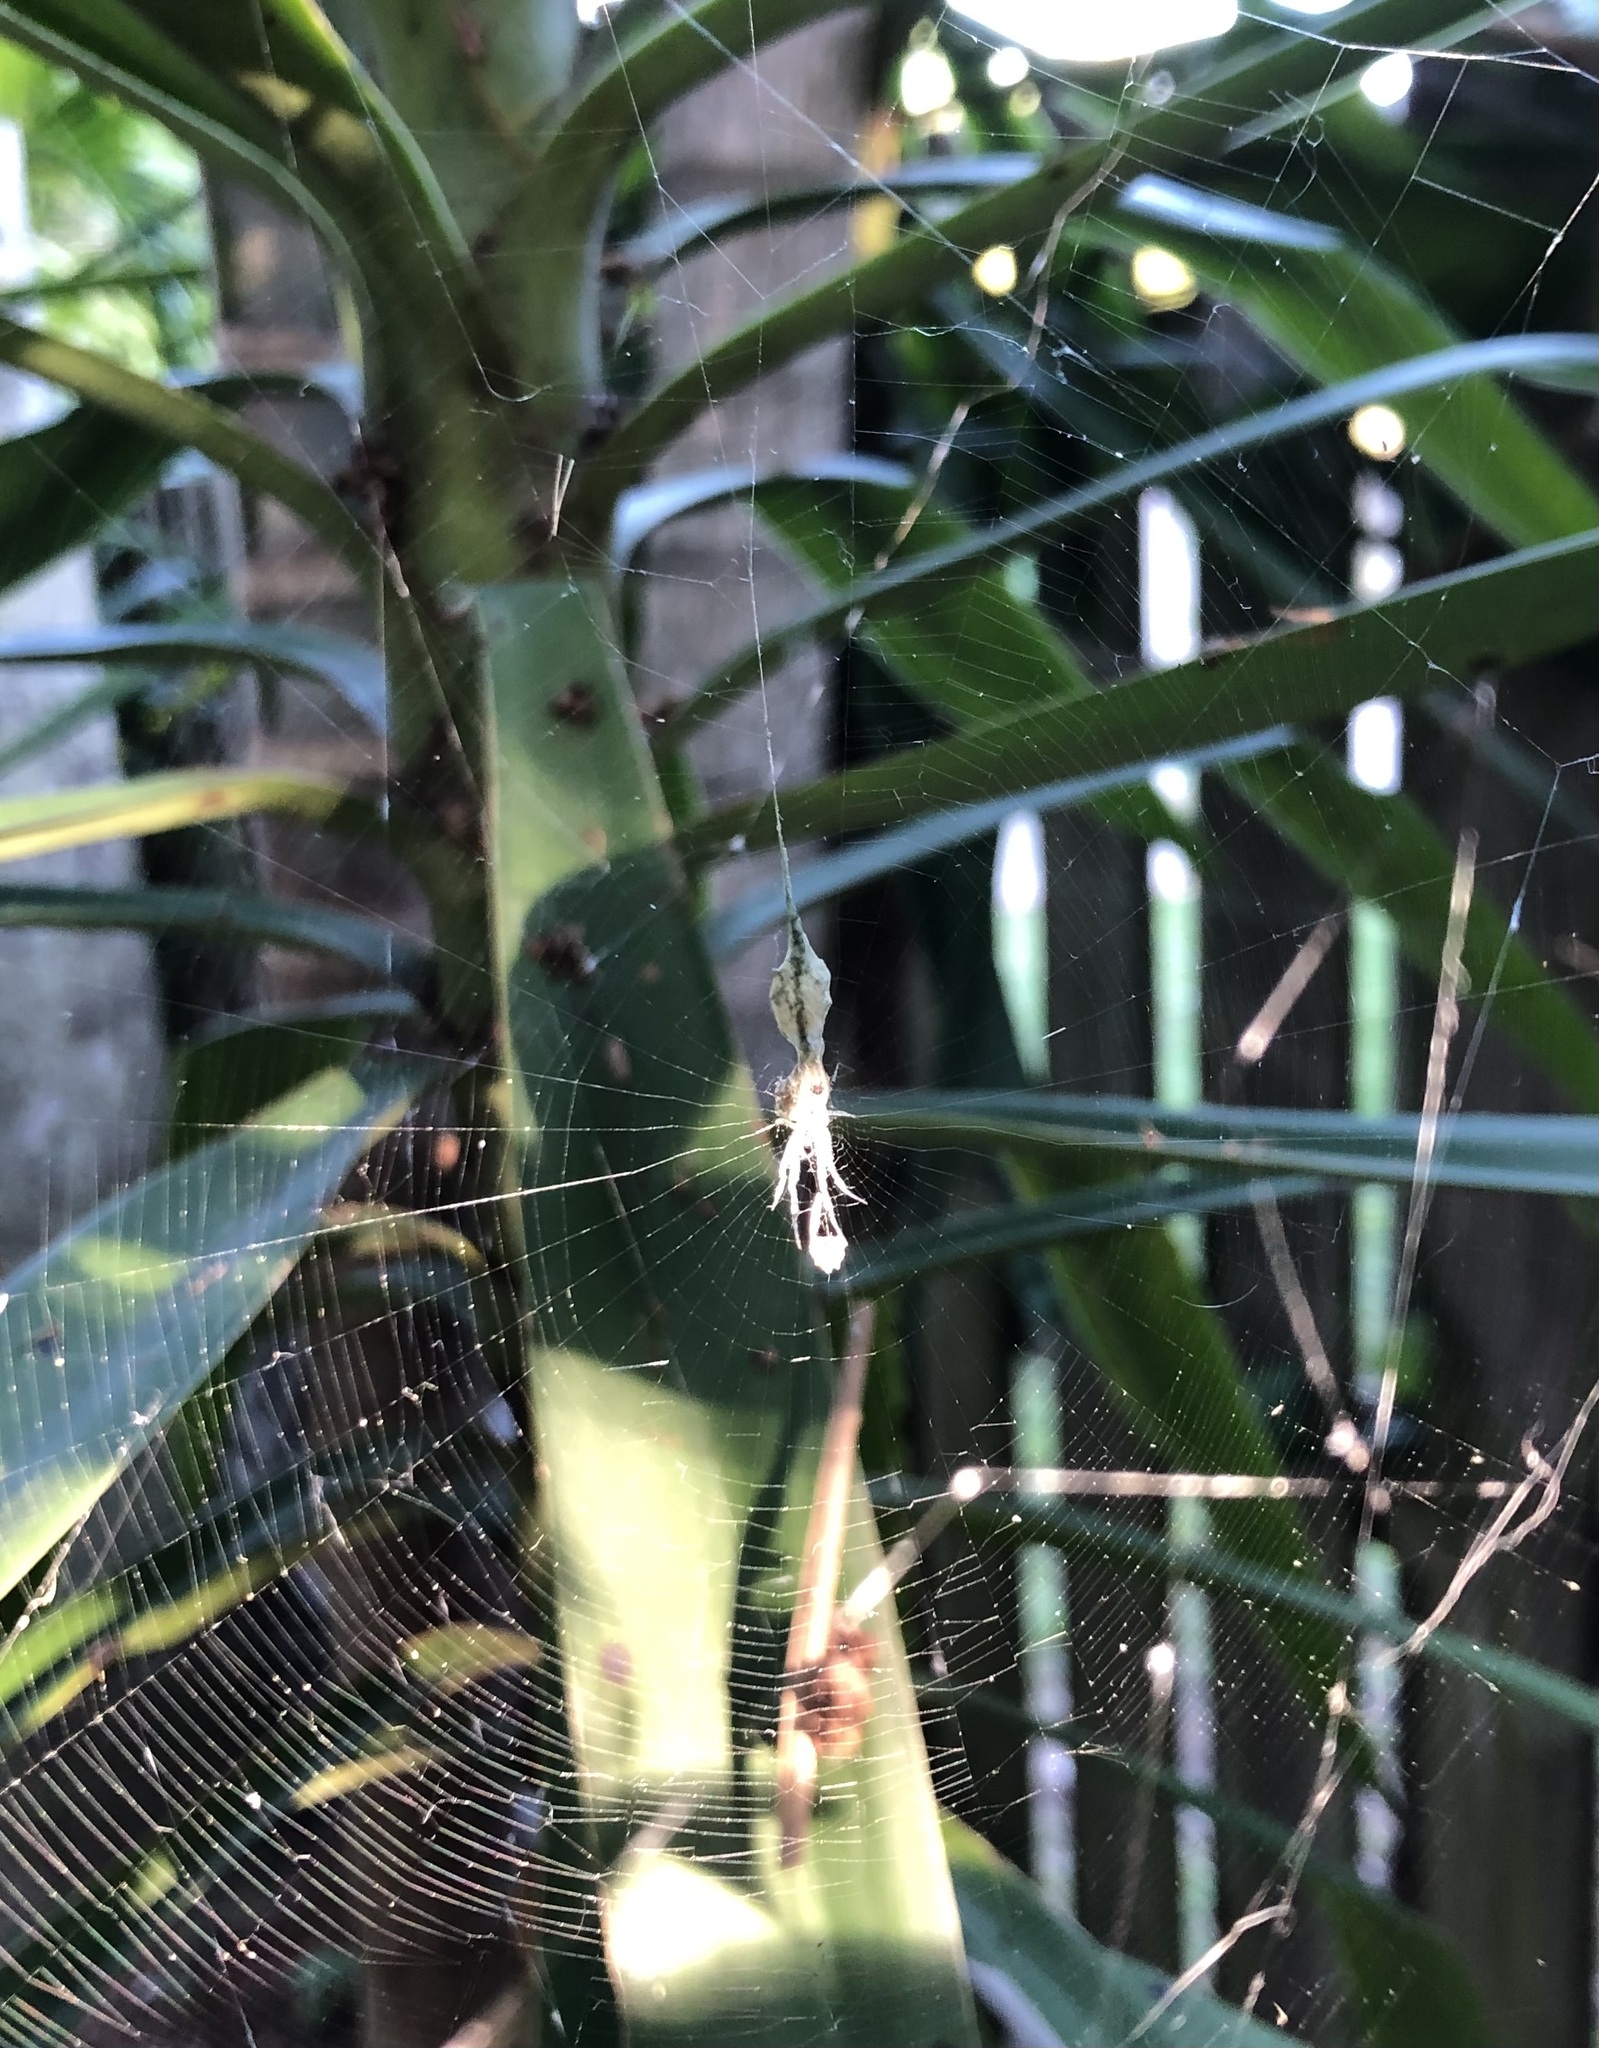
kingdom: Animalia
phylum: Arthropoda
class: Arachnida
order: Araneae
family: Araneidae
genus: Allocyclosa
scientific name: Allocyclosa bifurca
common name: Orb weavers
